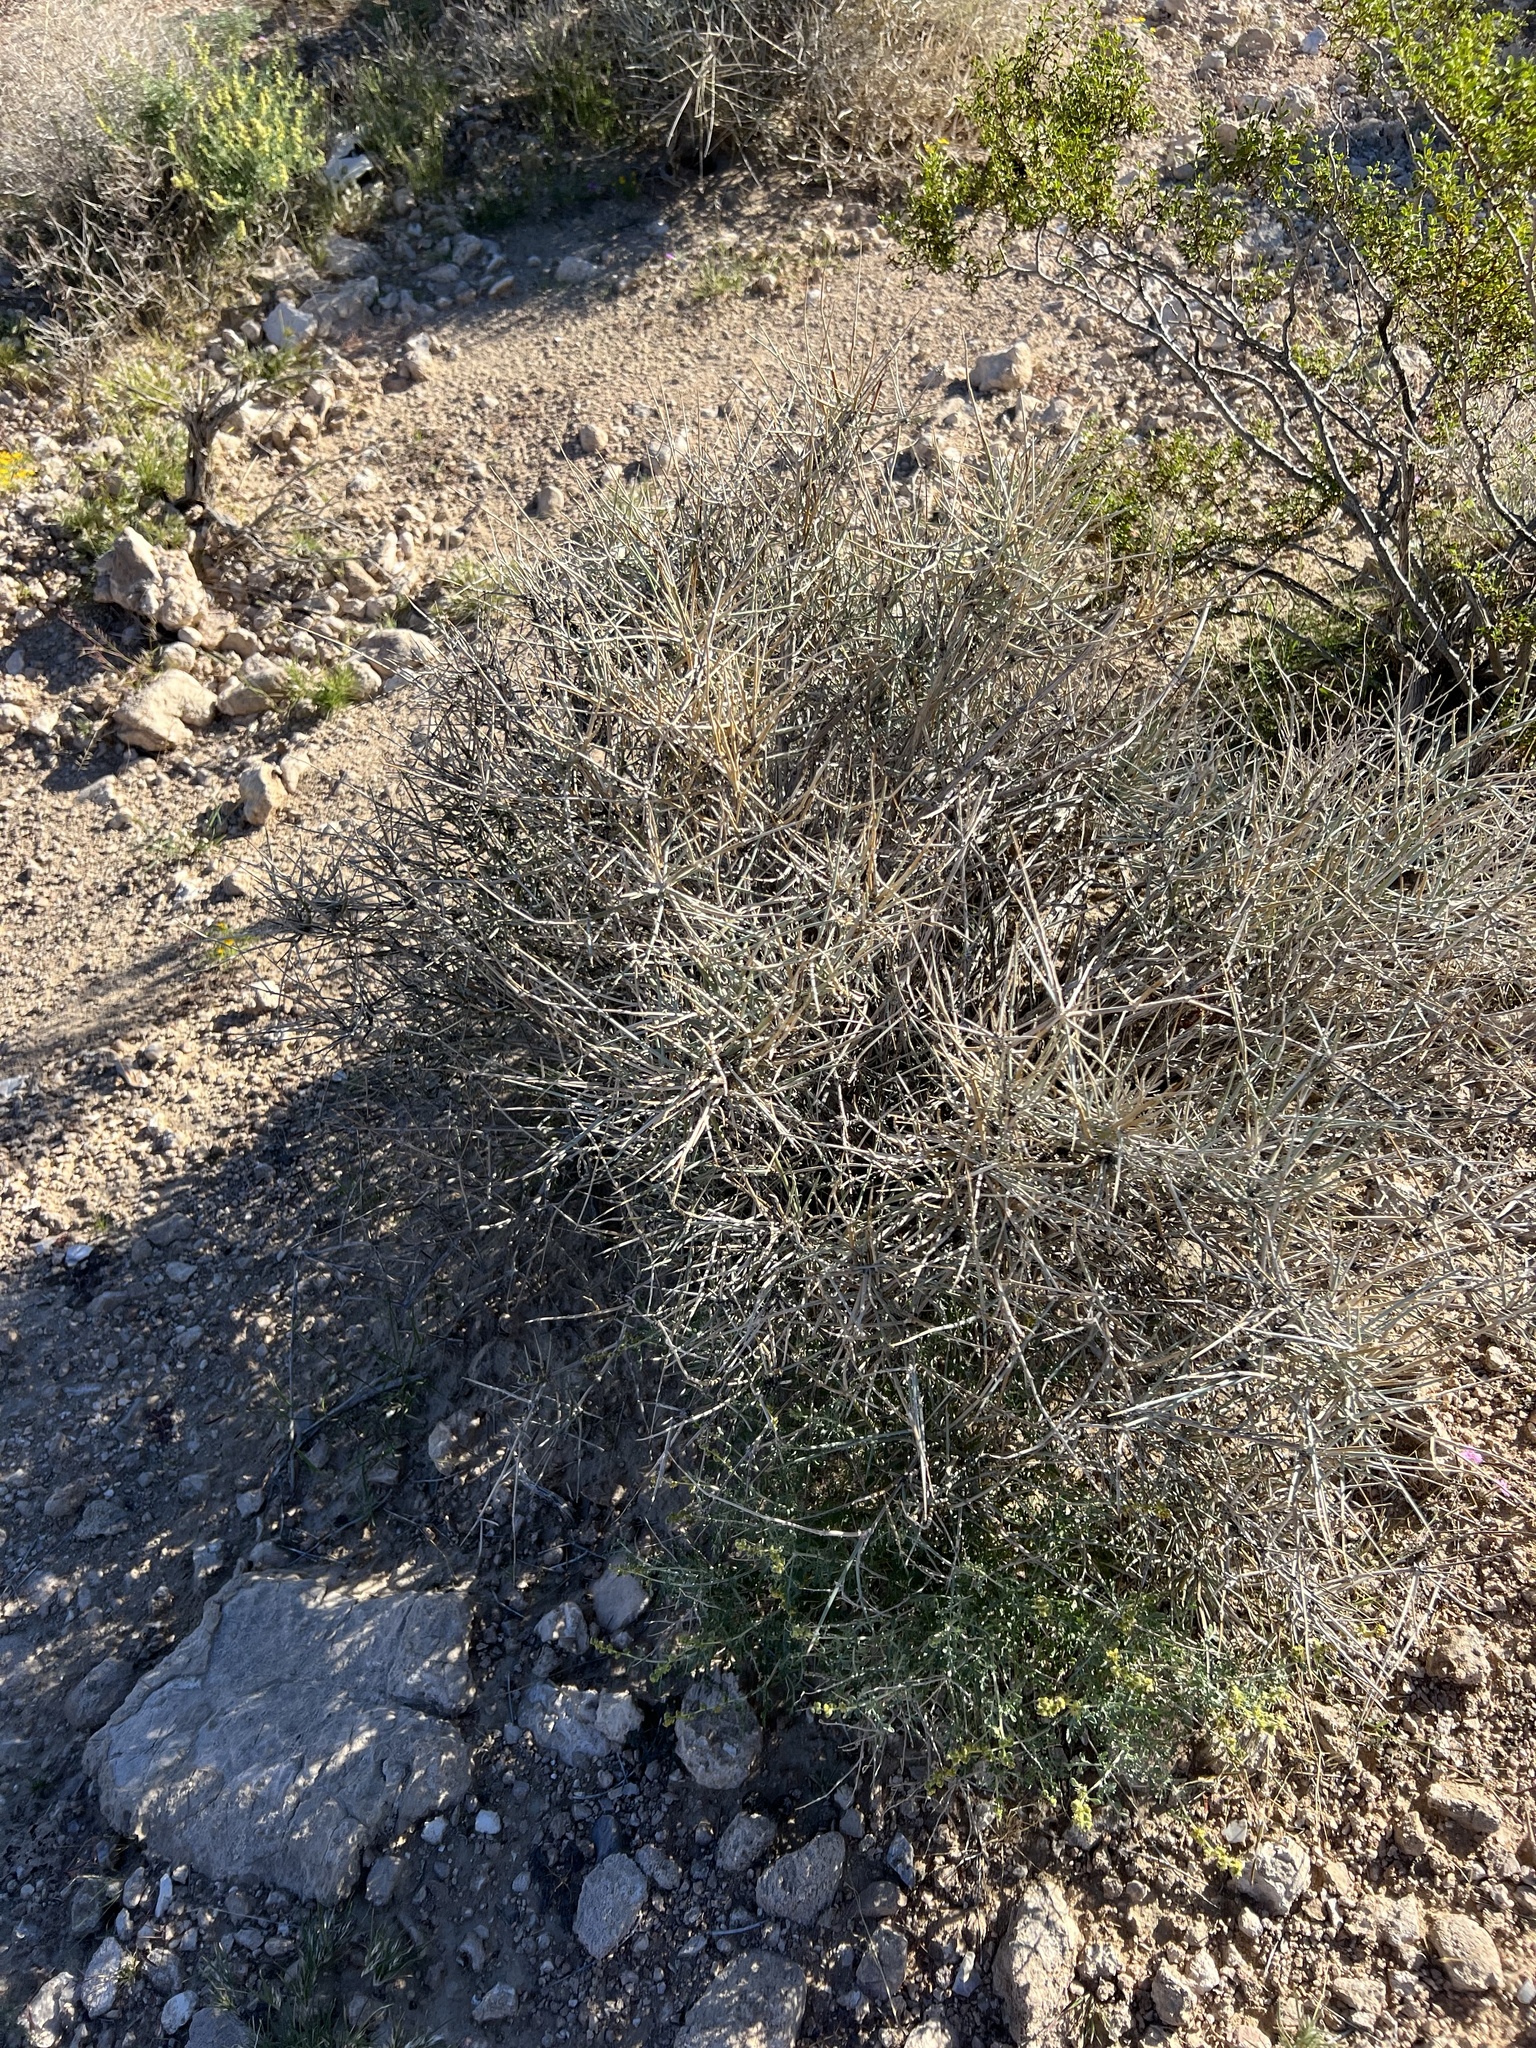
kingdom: Plantae
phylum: Tracheophyta
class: Gnetopsida
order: Ephedrales
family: Ephedraceae
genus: Ephedra
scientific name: Ephedra nevadensis
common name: Gray ephedra
